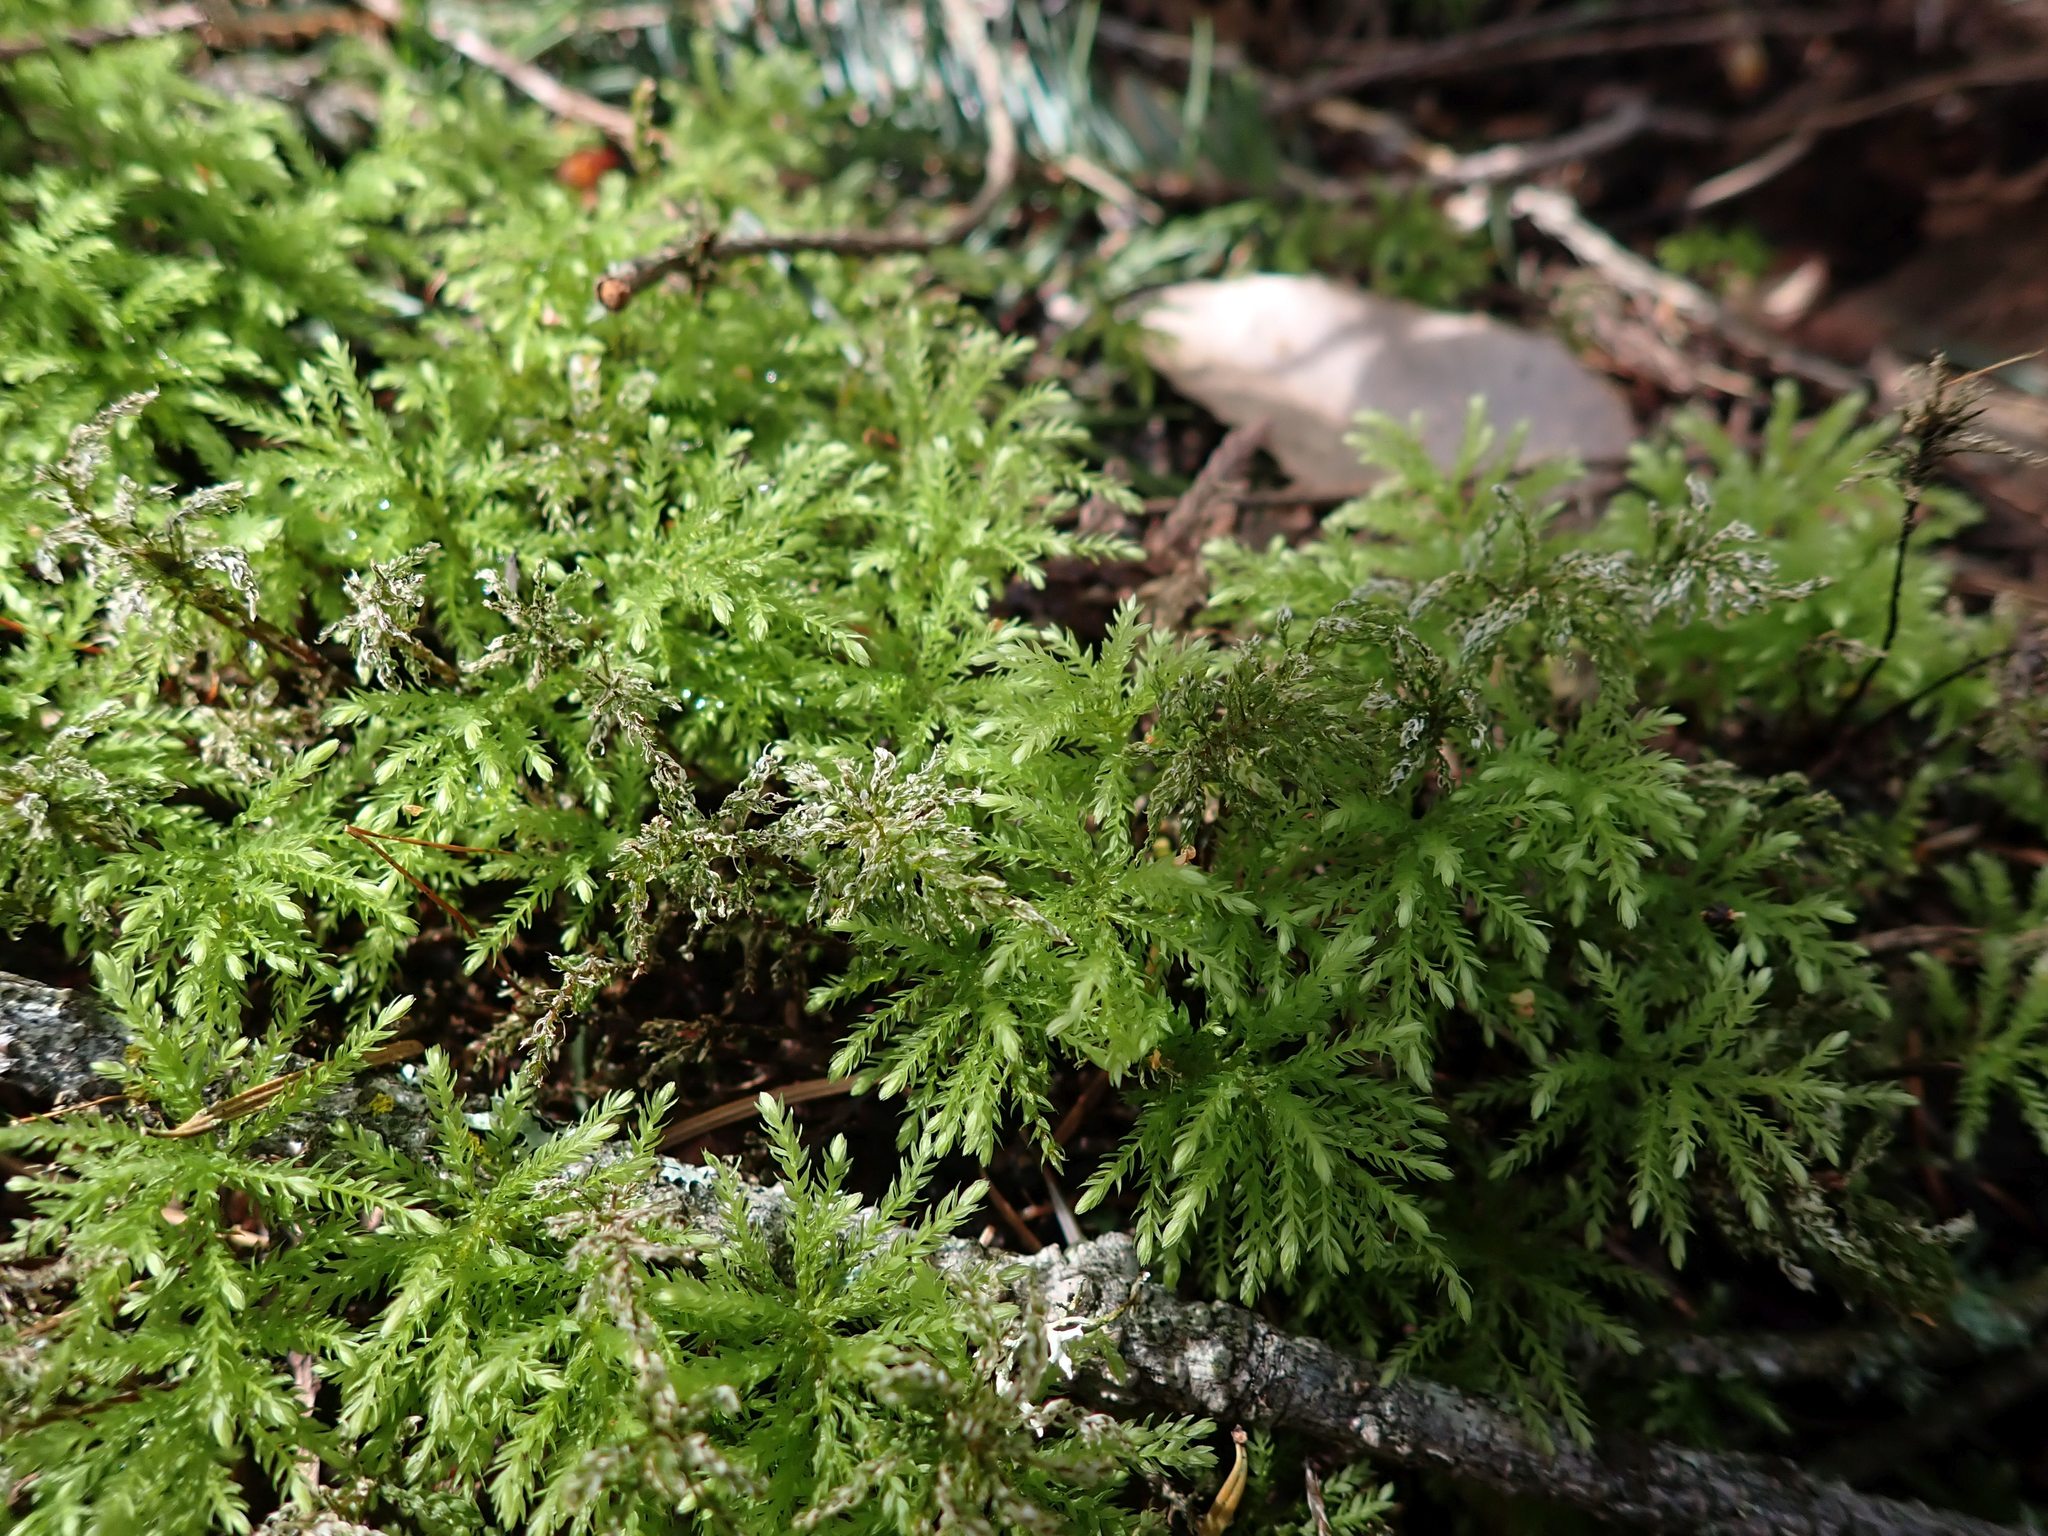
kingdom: Plantae
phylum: Bryophyta
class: Bryopsida
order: Bryales
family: Mniaceae
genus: Leucolepis
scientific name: Leucolepis acanthoneura
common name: Leucolepis umbrella moss
